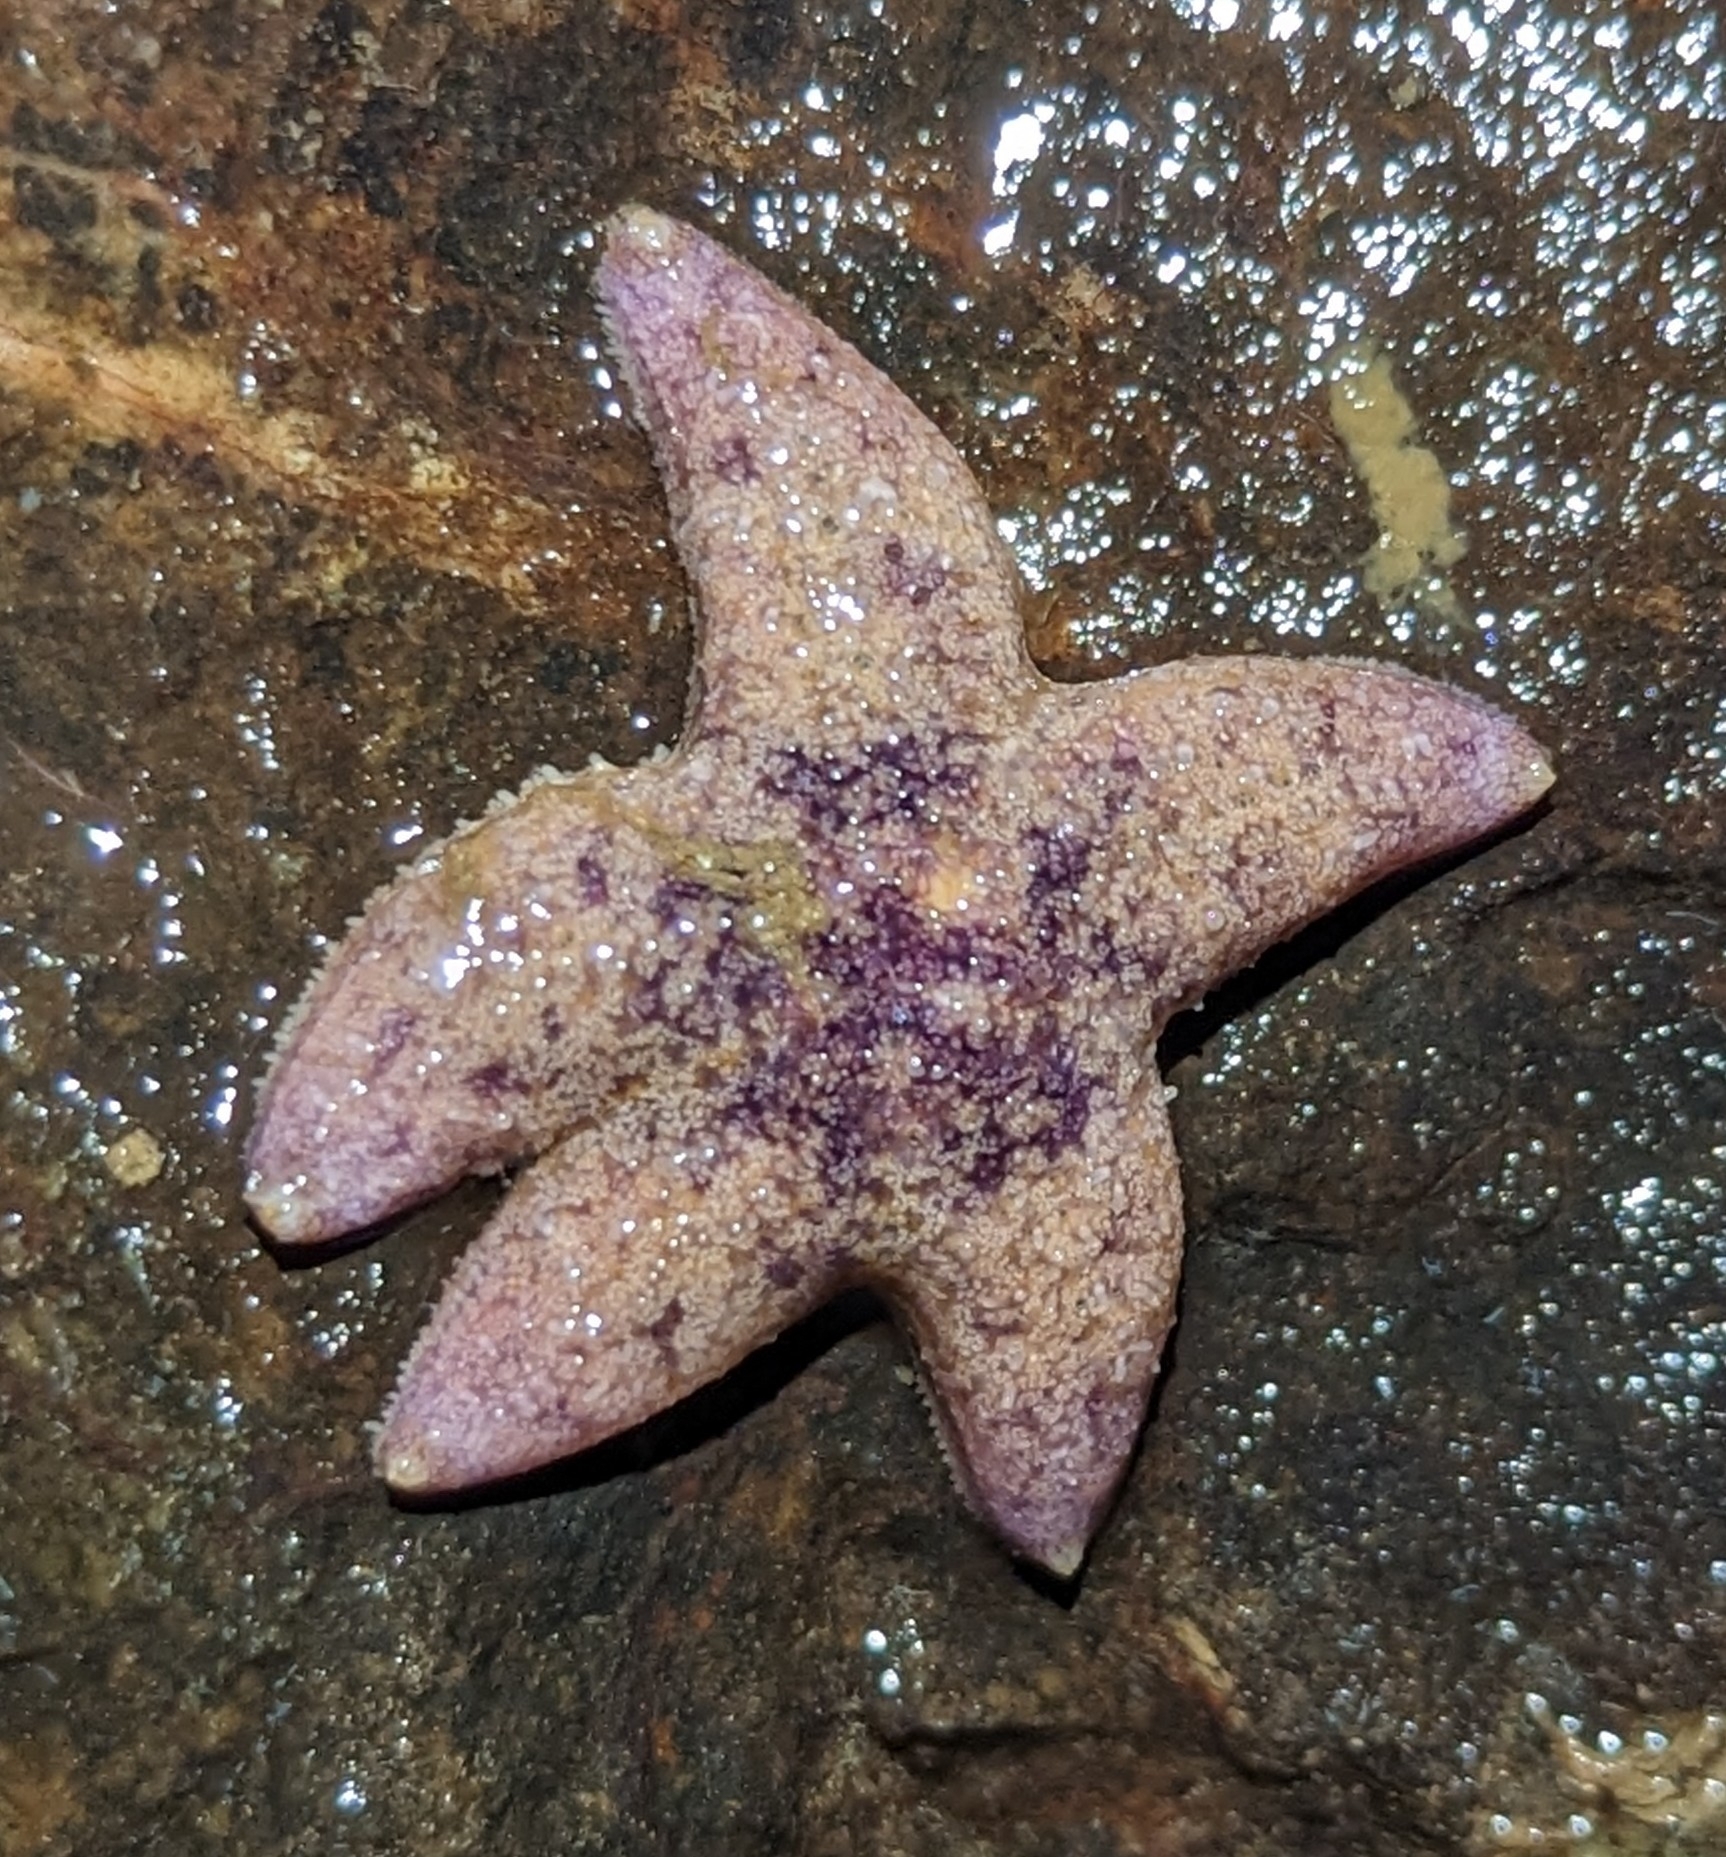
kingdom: Animalia
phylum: Echinodermata
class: Asteroidea
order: Forcipulatida
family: Asteriidae
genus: Pisaster
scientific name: Pisaster ochraceus
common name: Ochre stars
